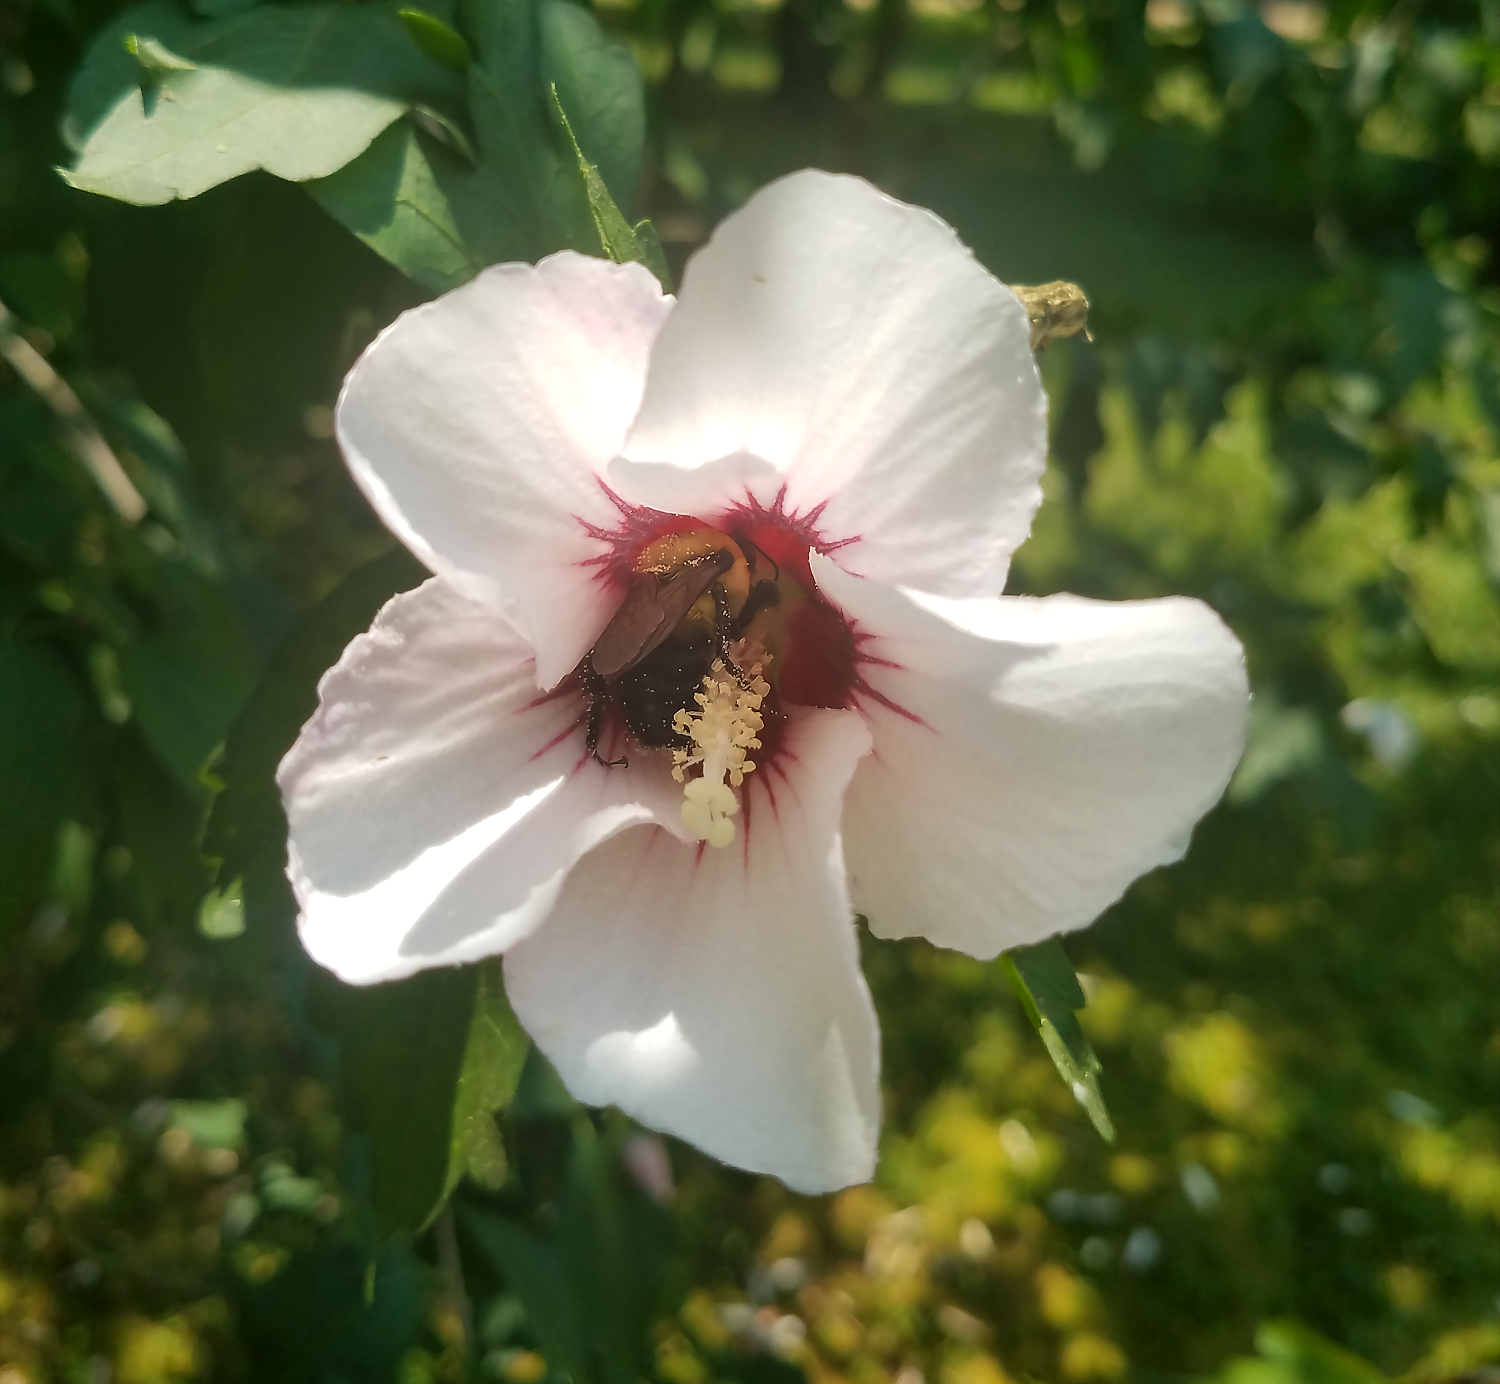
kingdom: Animalia
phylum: Arthropoda
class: Insecta
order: Hymenoptera
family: Apidae
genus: Bombus
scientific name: Bombus griseocollis
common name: Brown-belted bumble bee
